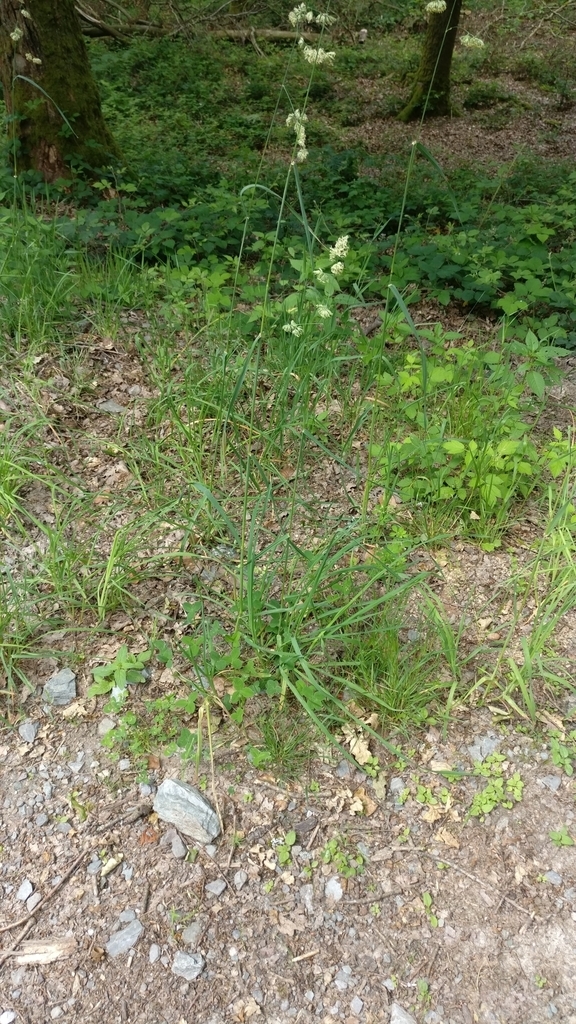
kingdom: Plantae
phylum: Tracheophyta
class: Liliopsida
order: Poales
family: Poaceae
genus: Dactylis
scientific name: Dactylis glomerata
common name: Orchardgrass
